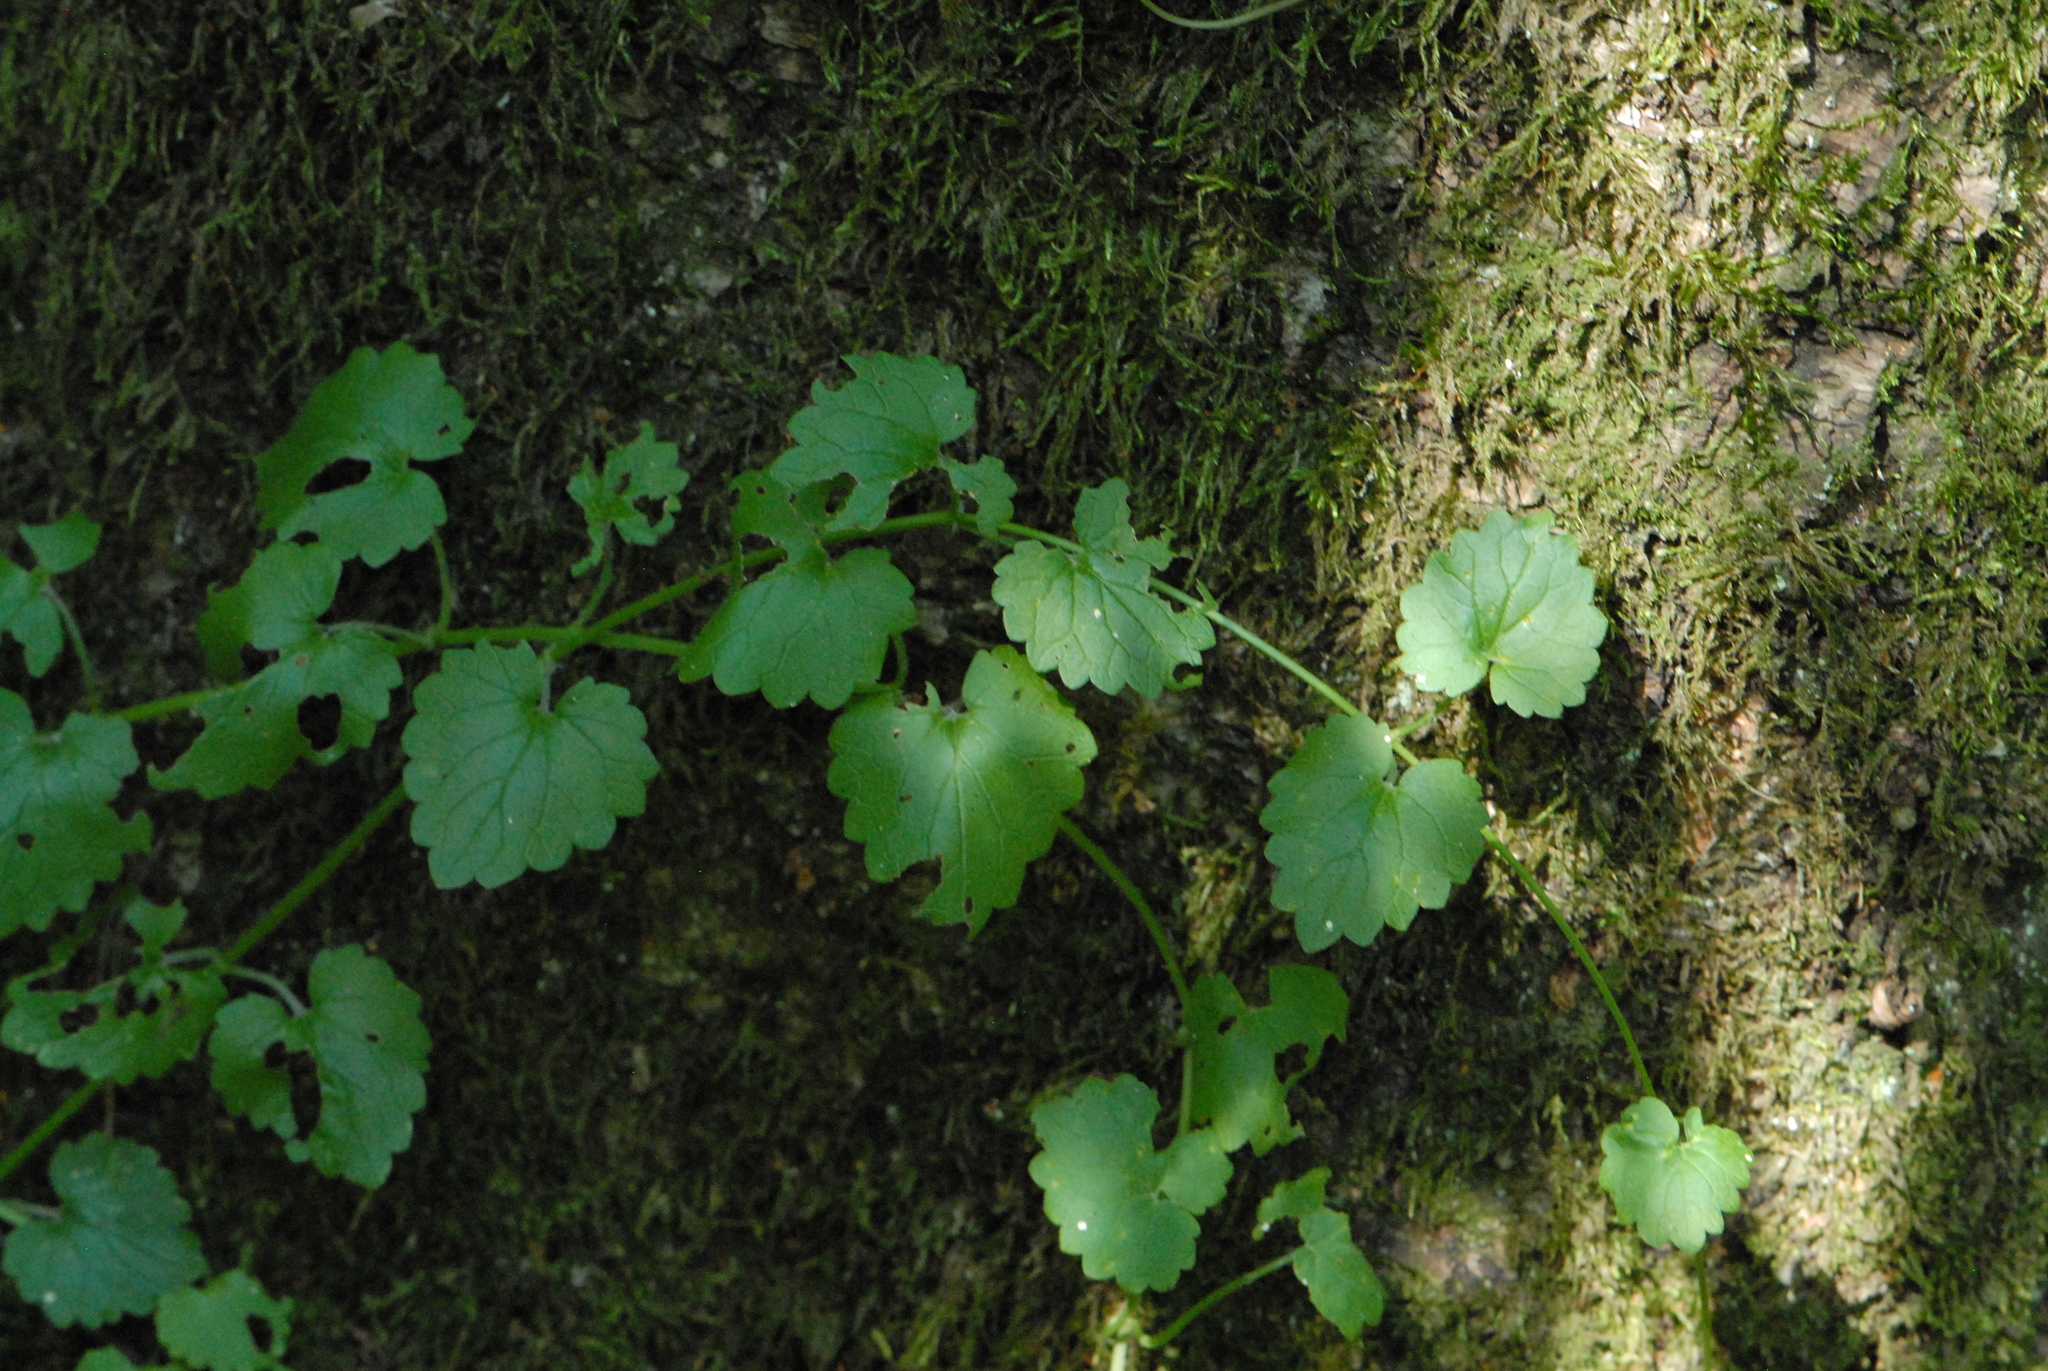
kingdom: Plantae
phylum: Tracheophyta
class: Magnoliopsida
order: Lamiales
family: Lamiaceae
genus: Glechoma
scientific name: Glechoma hederacea
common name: Ground ivy
